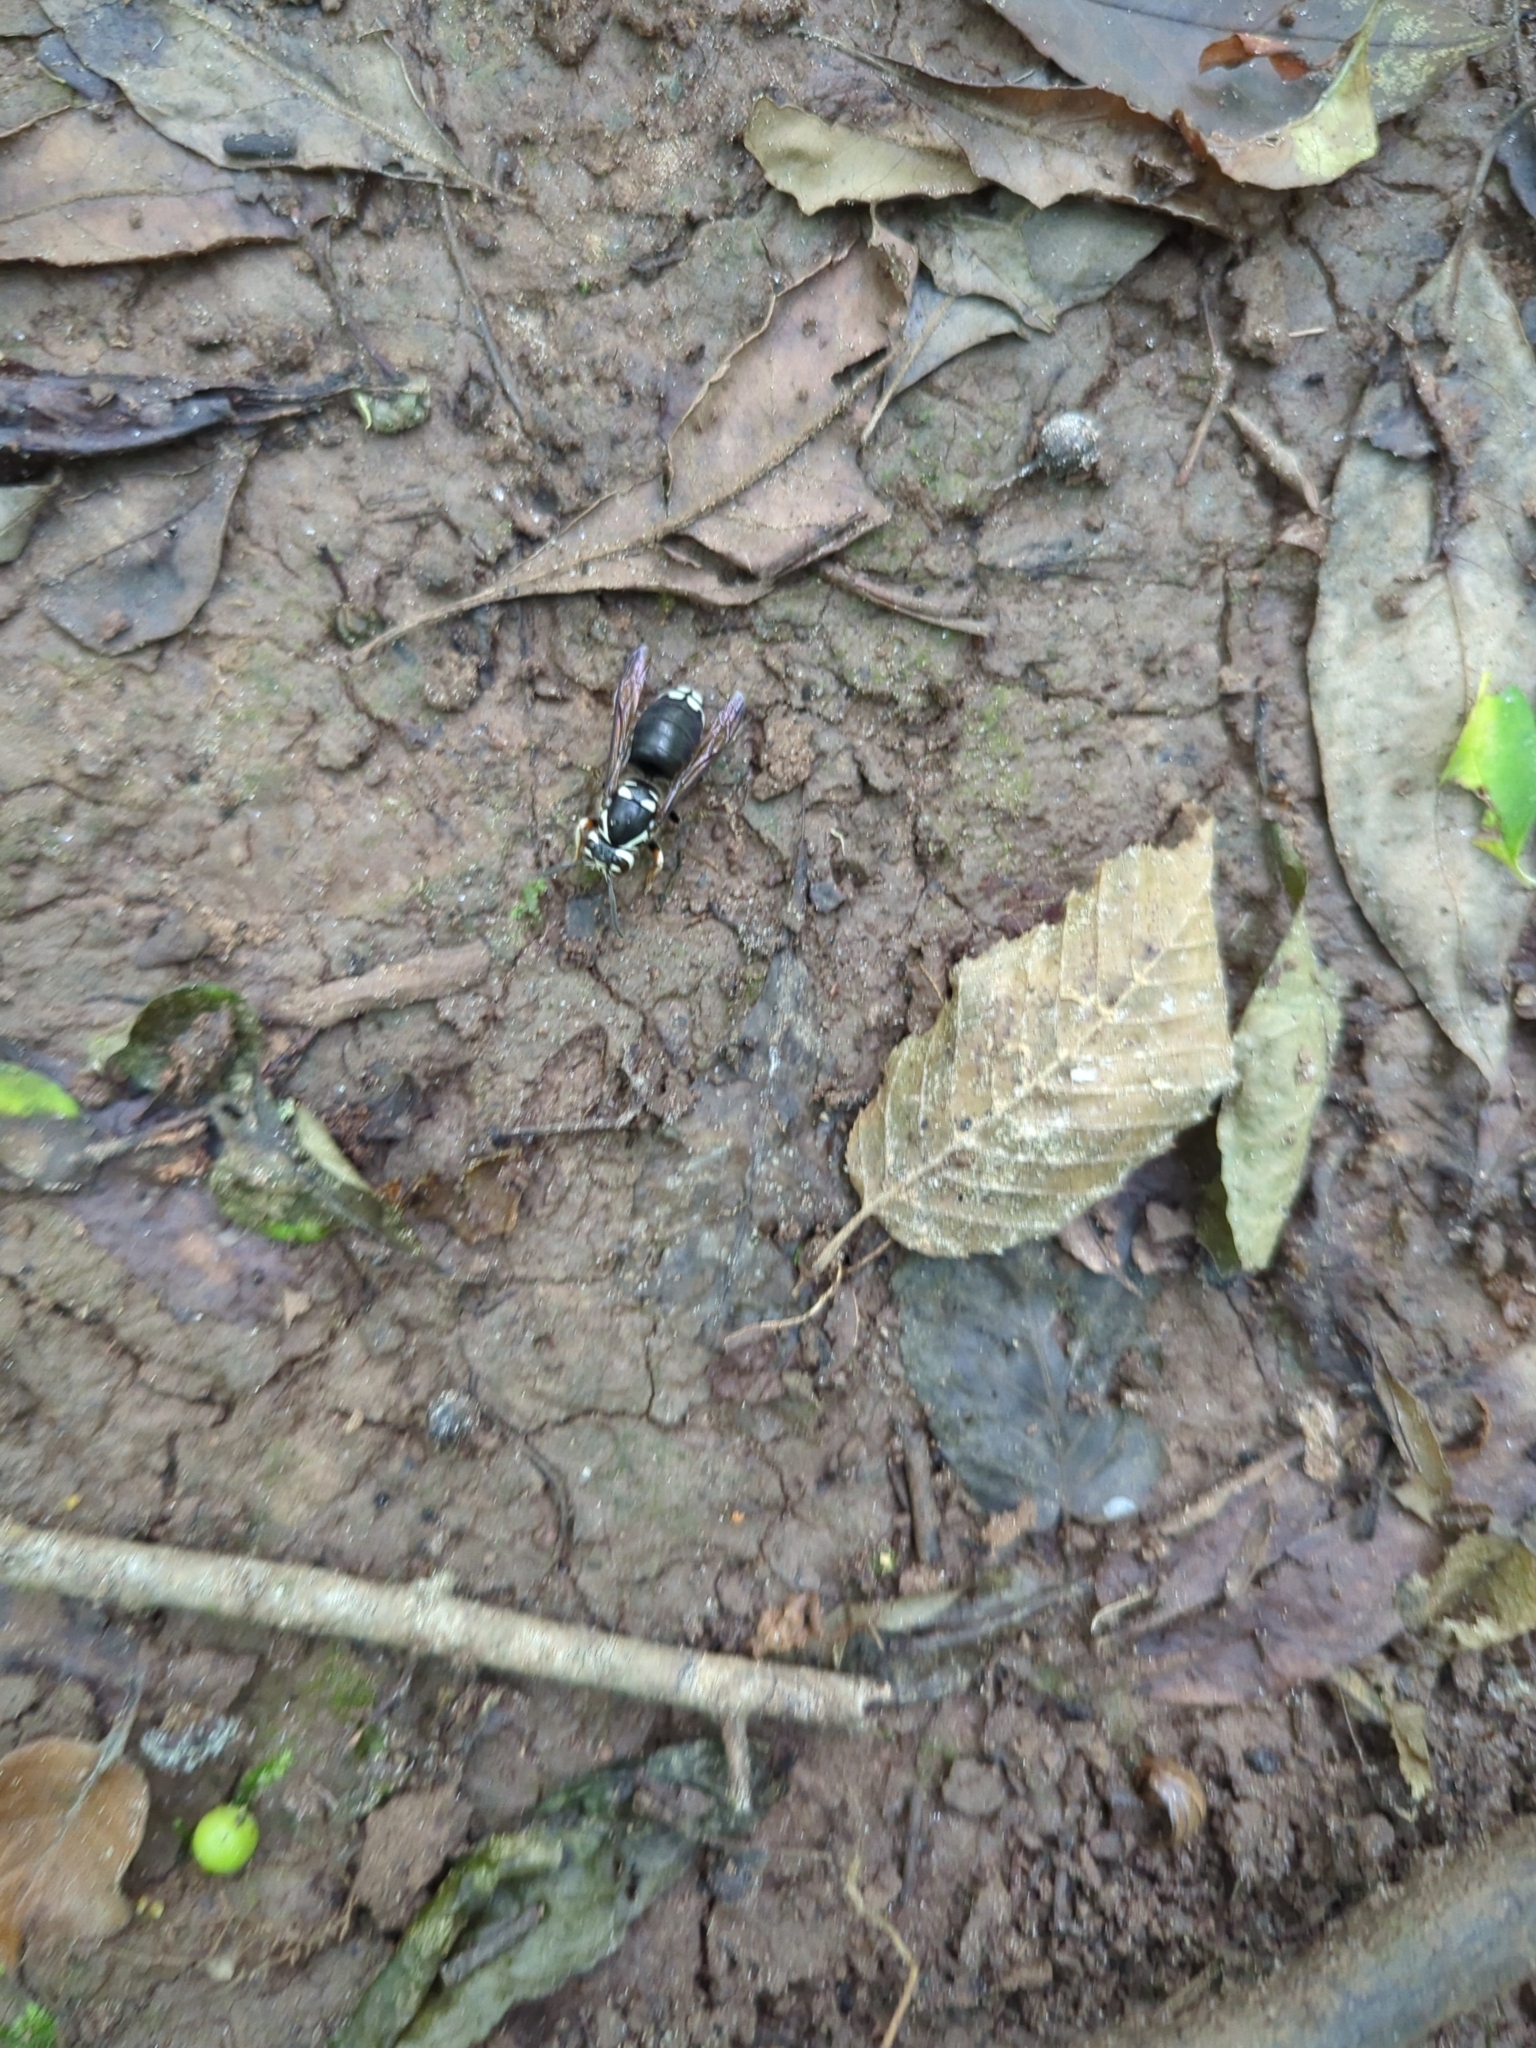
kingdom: Animalia
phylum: Arthropoda
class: Insecta
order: Hymenoptera
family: Vespidae
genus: Dolichovespula
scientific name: Dolichovespula maculata
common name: Bald-faced hornet
